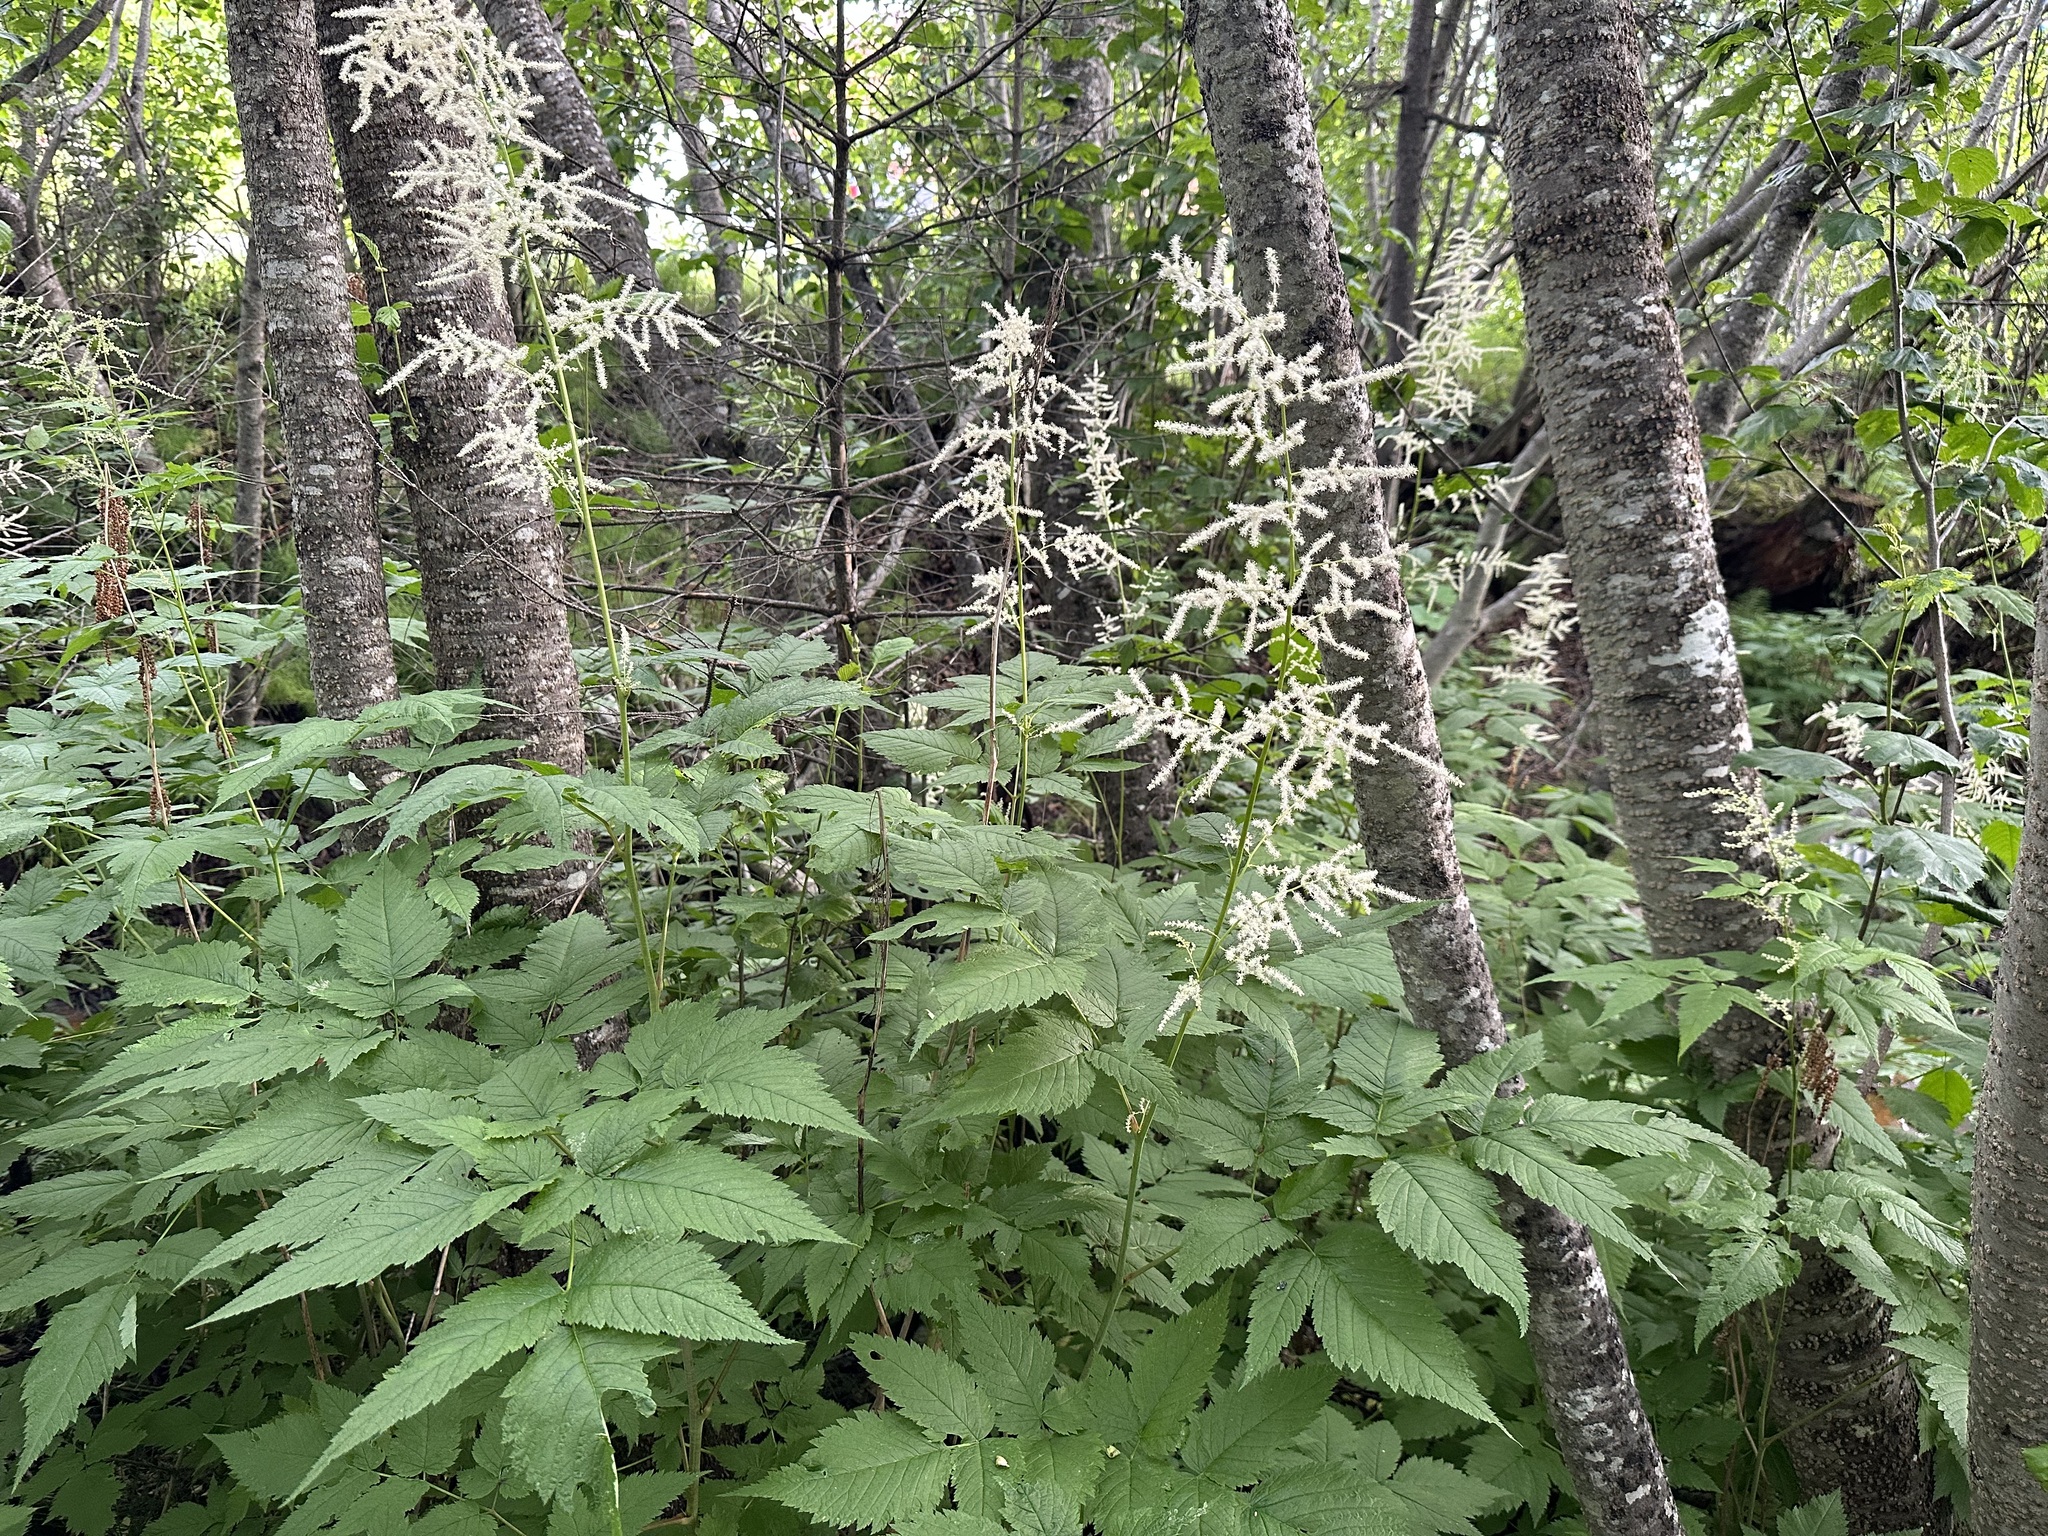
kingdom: Plantae
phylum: Tracheophyta
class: Magnoliopsida
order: Rosales
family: Rosaceae
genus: Aruncus
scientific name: Aruncus dioicus
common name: Buck's-beard
